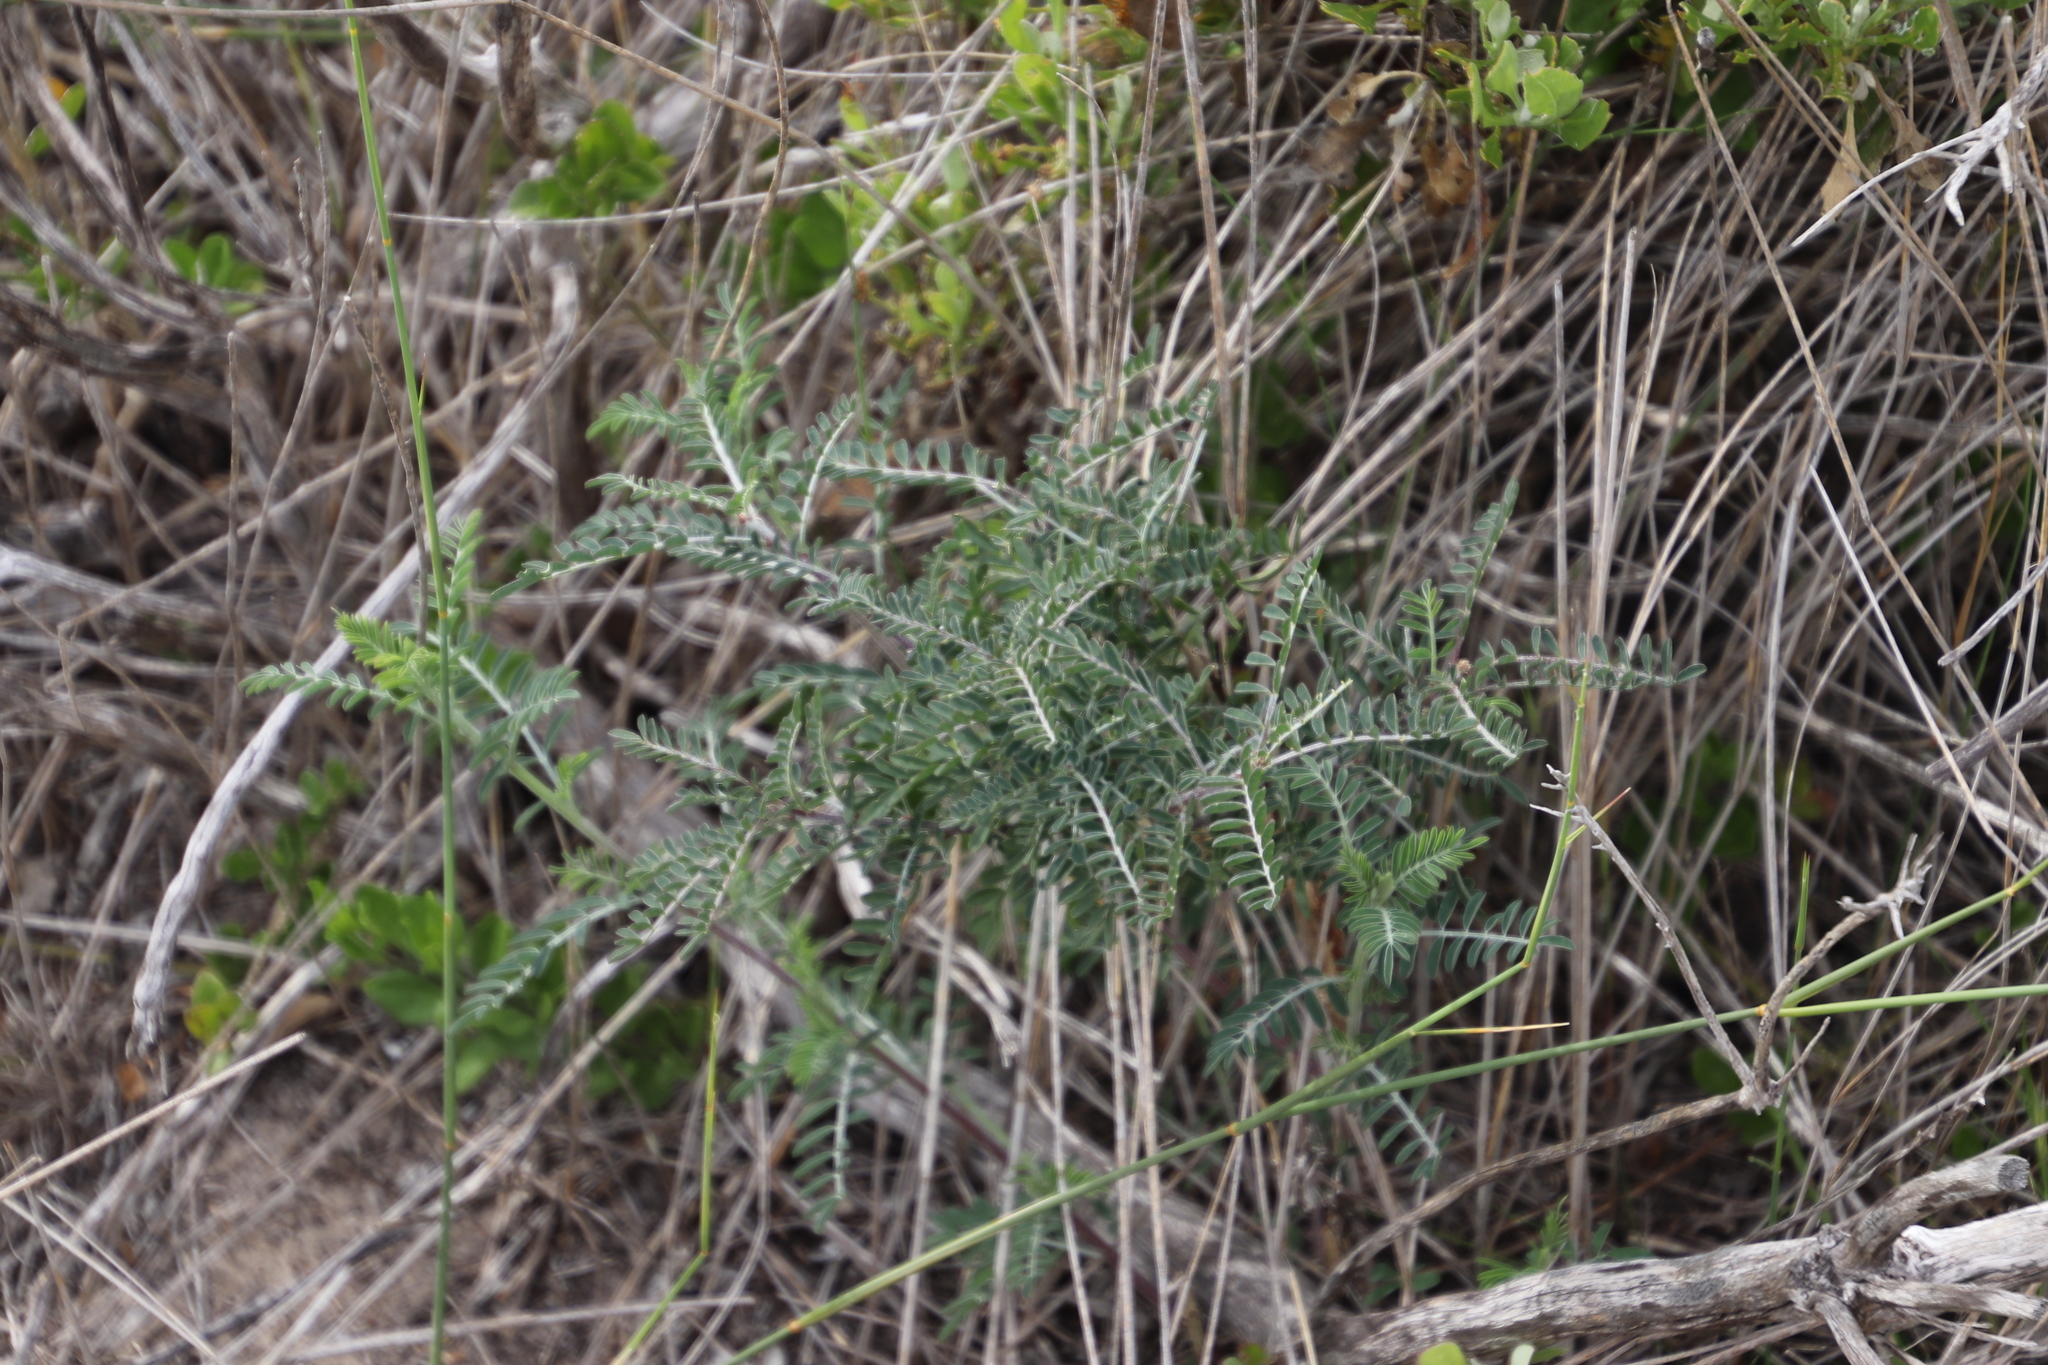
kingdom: Plantae
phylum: Tracheophyta
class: Magnoliopsida
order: Fabales
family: Fabaceae
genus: Lessertia
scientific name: Lessertia frutescens
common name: Balloon-pea
